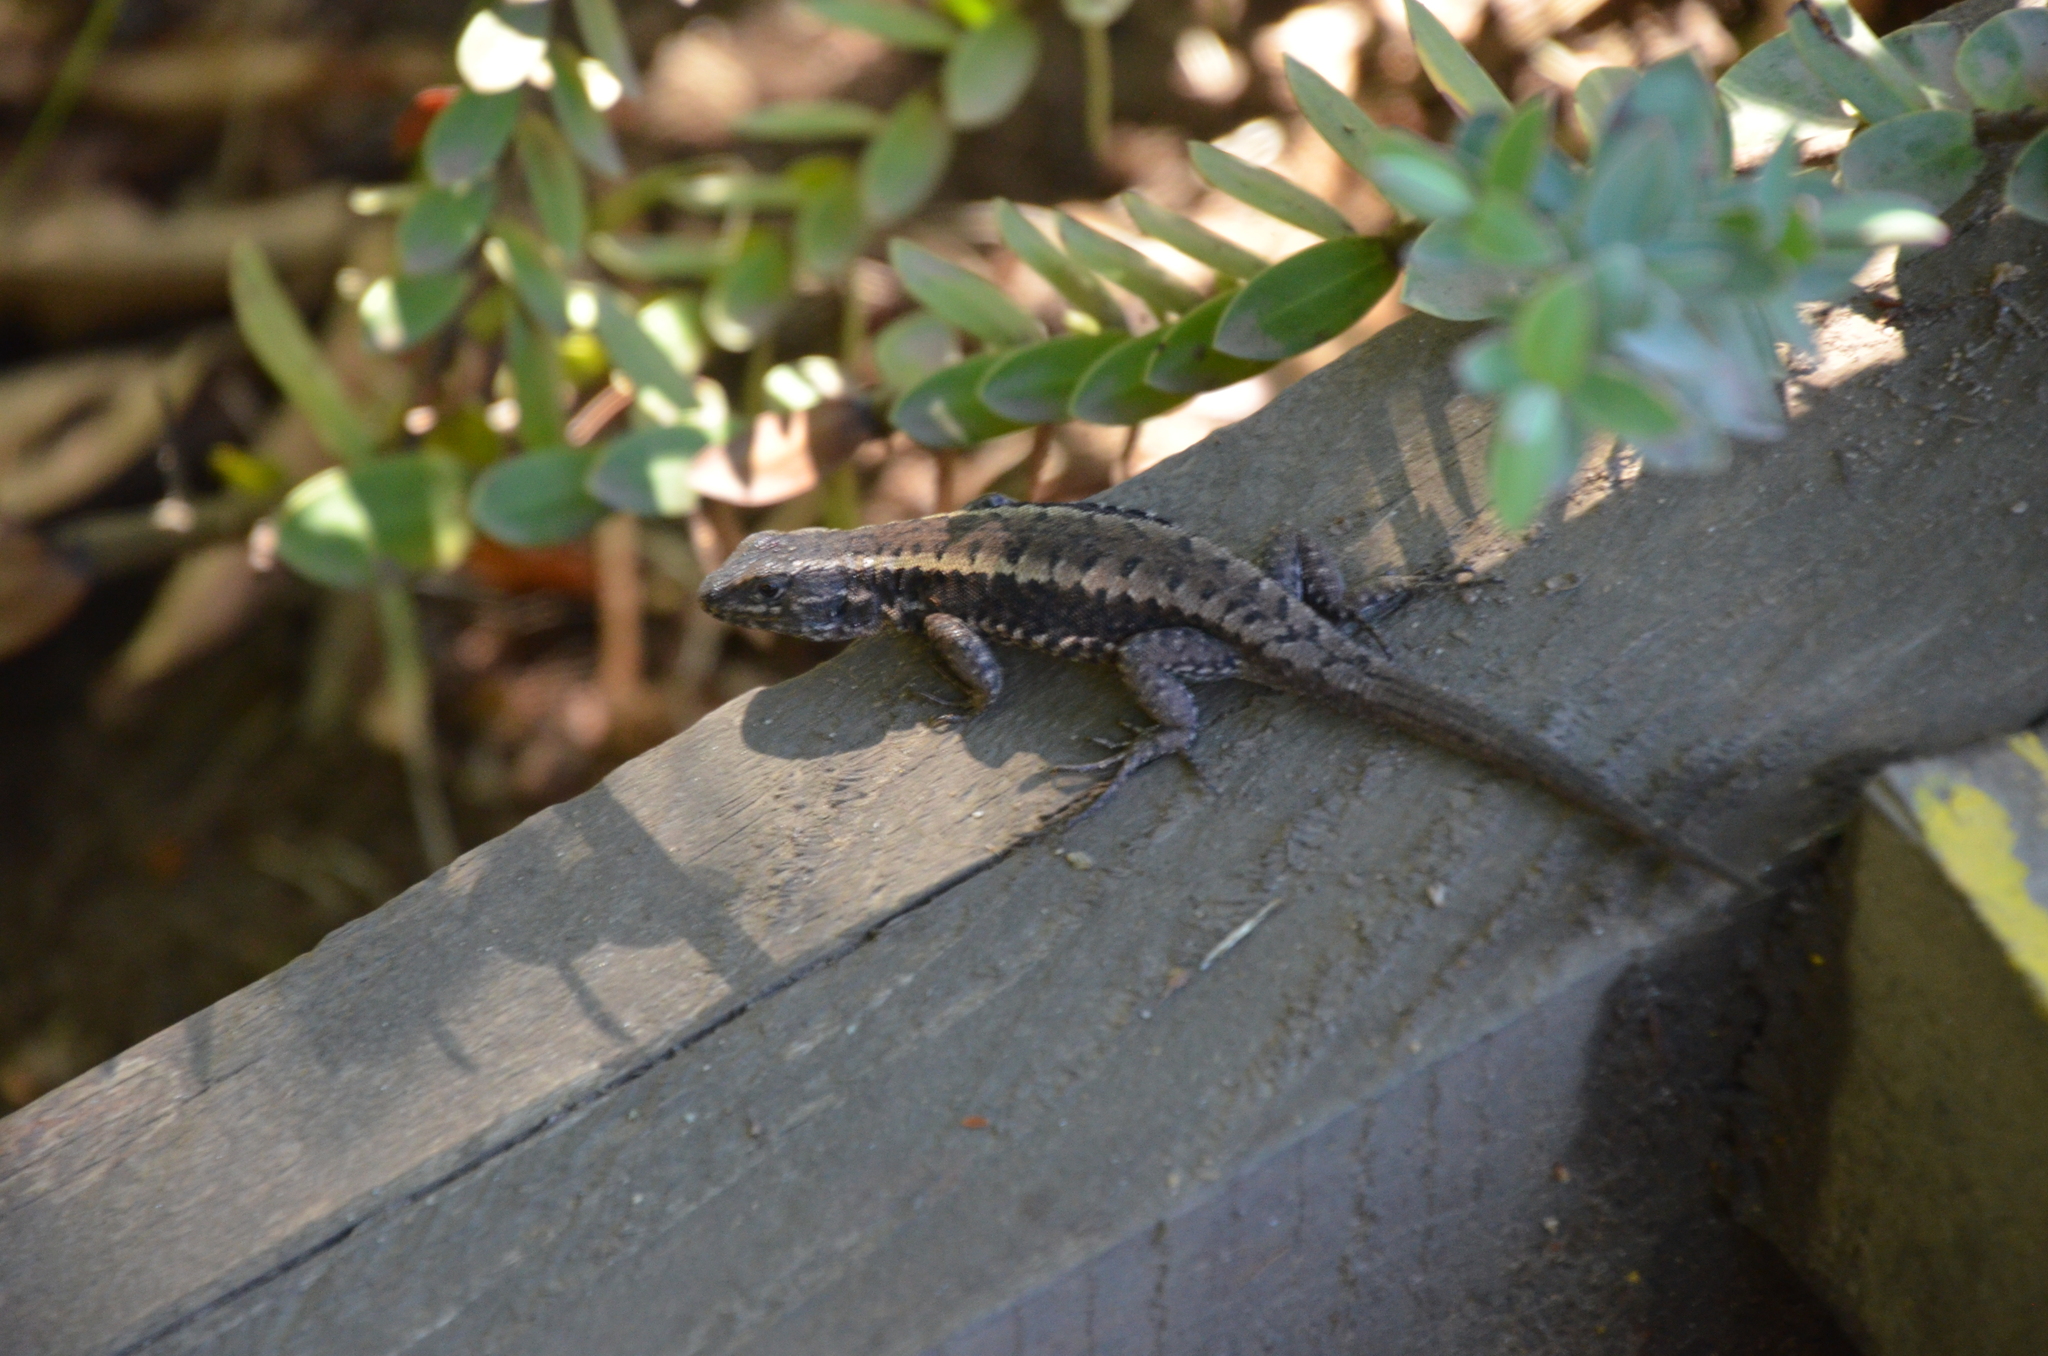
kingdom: Animalia
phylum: Chordata
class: Squamata
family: Liolaemidae
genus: Liolaemus
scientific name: Liolaemus pictus
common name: Painted tree iguana
